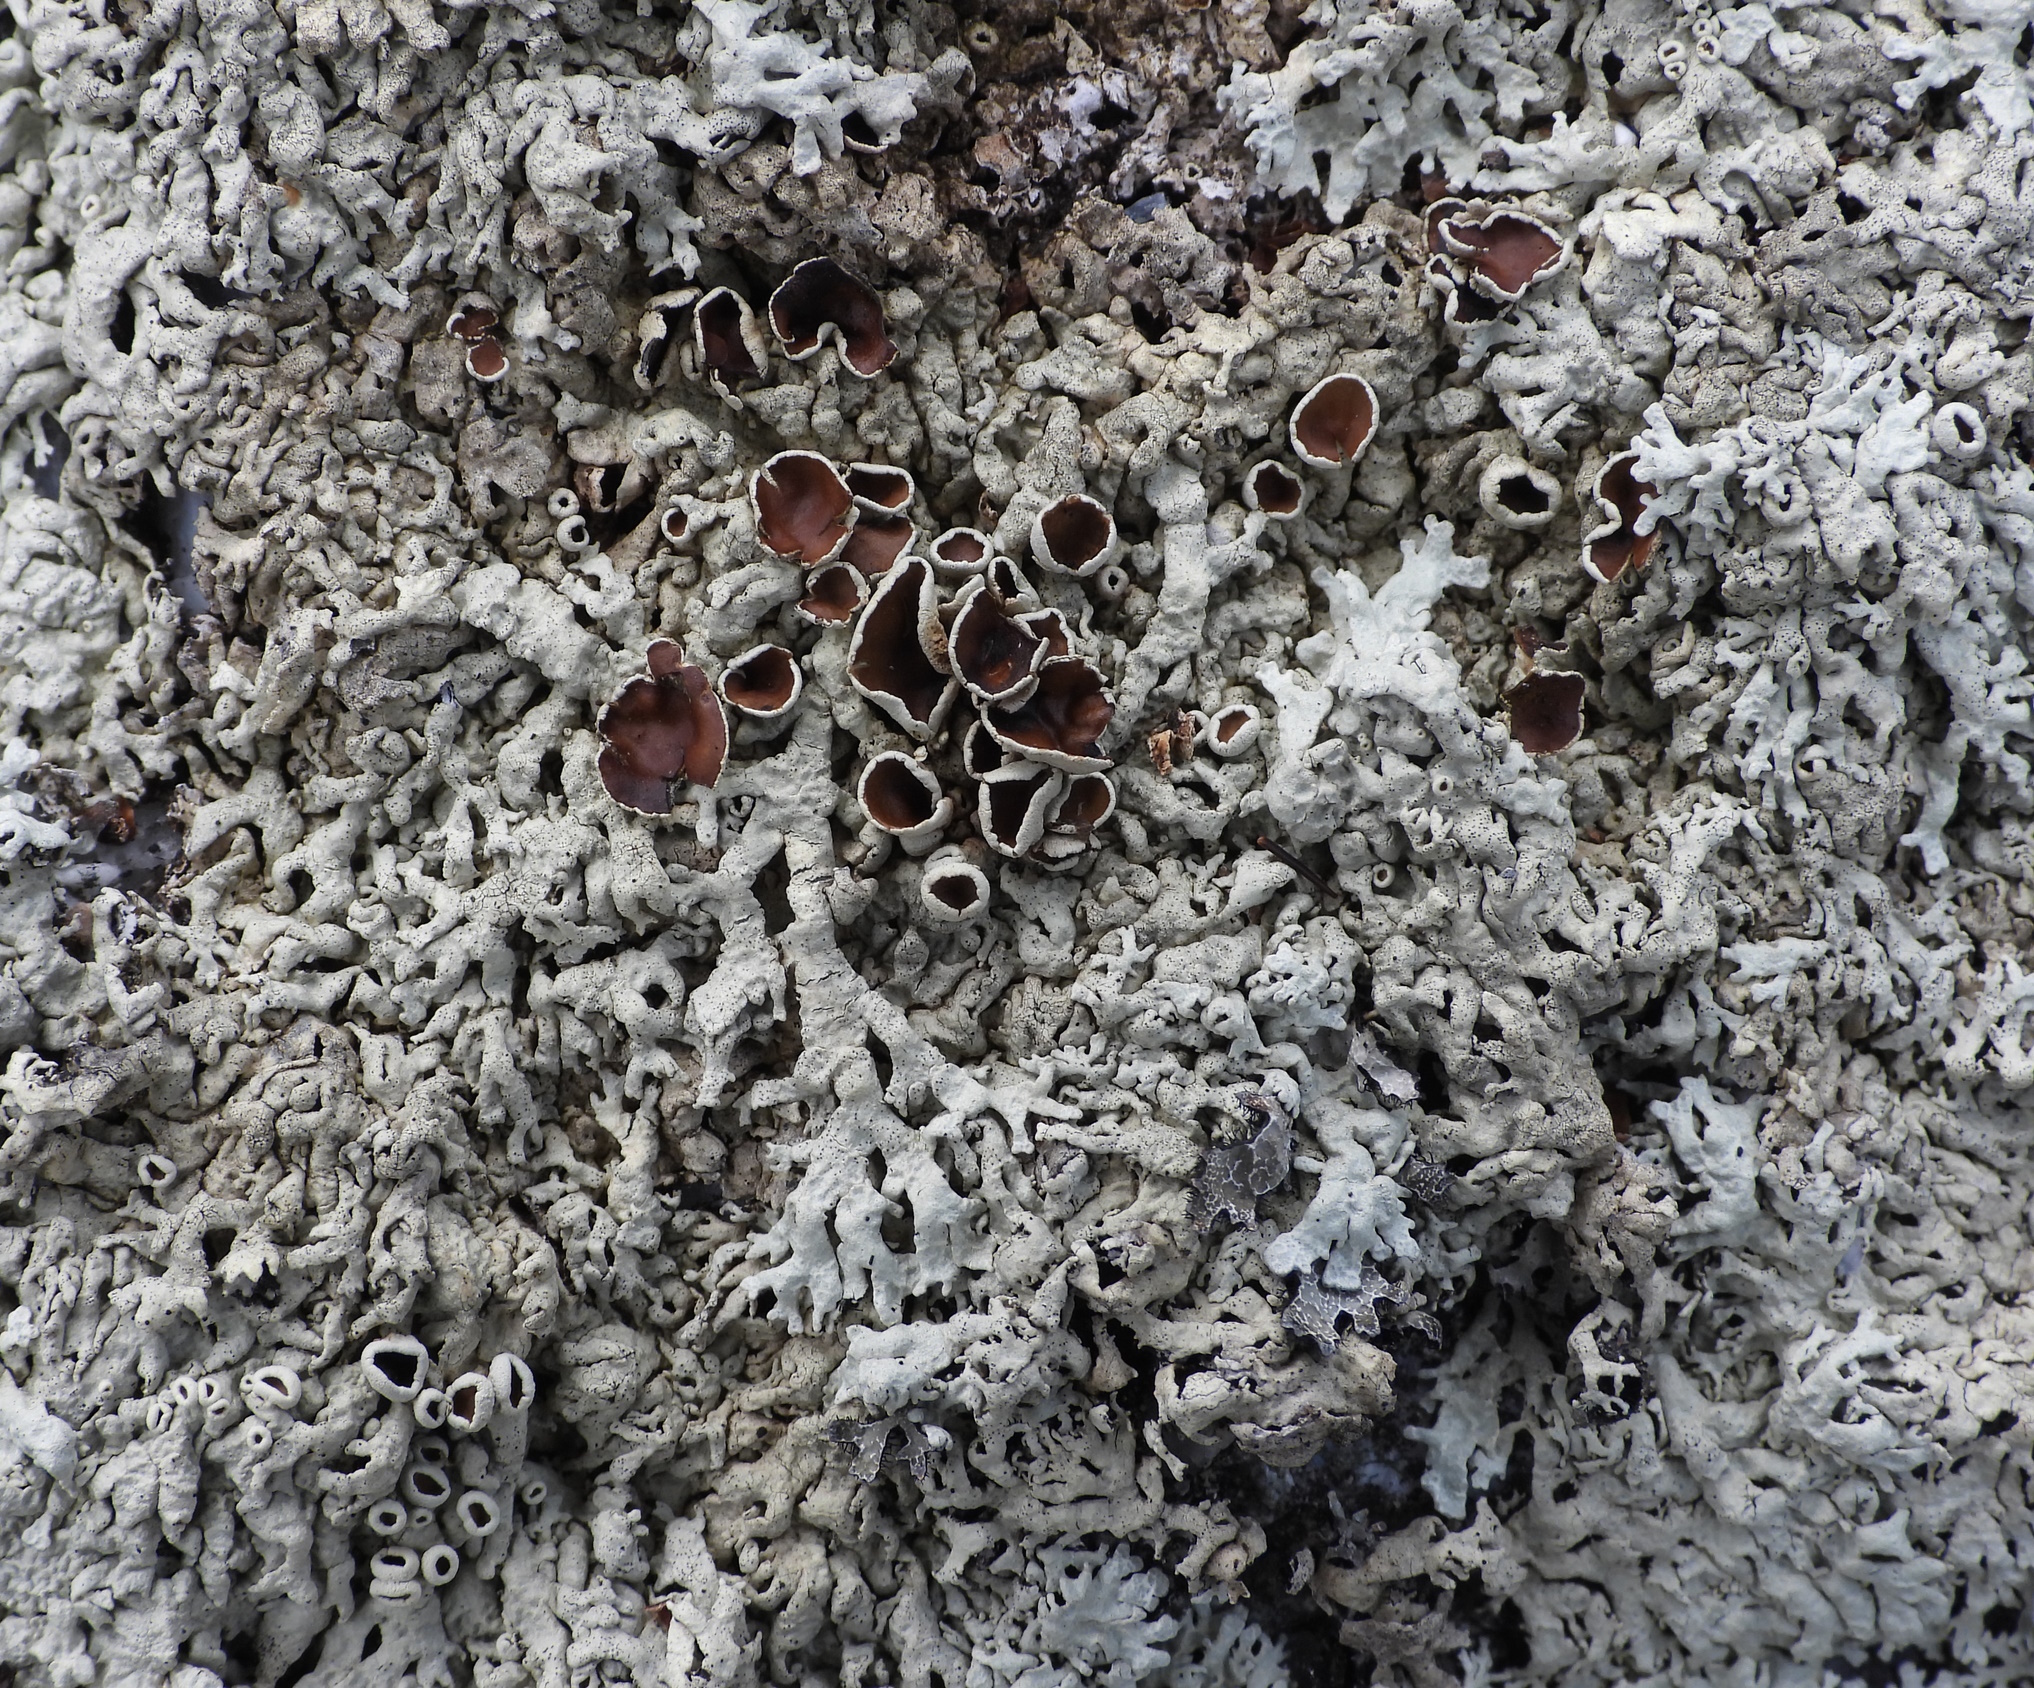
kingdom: Fungi
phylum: Ascomycota
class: Lecanoromycetes
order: Lecanorales
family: Parmeliaceae
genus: Arctoparmelia
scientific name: Arctoparmelia centrifuga
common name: Concentric ring lichen
